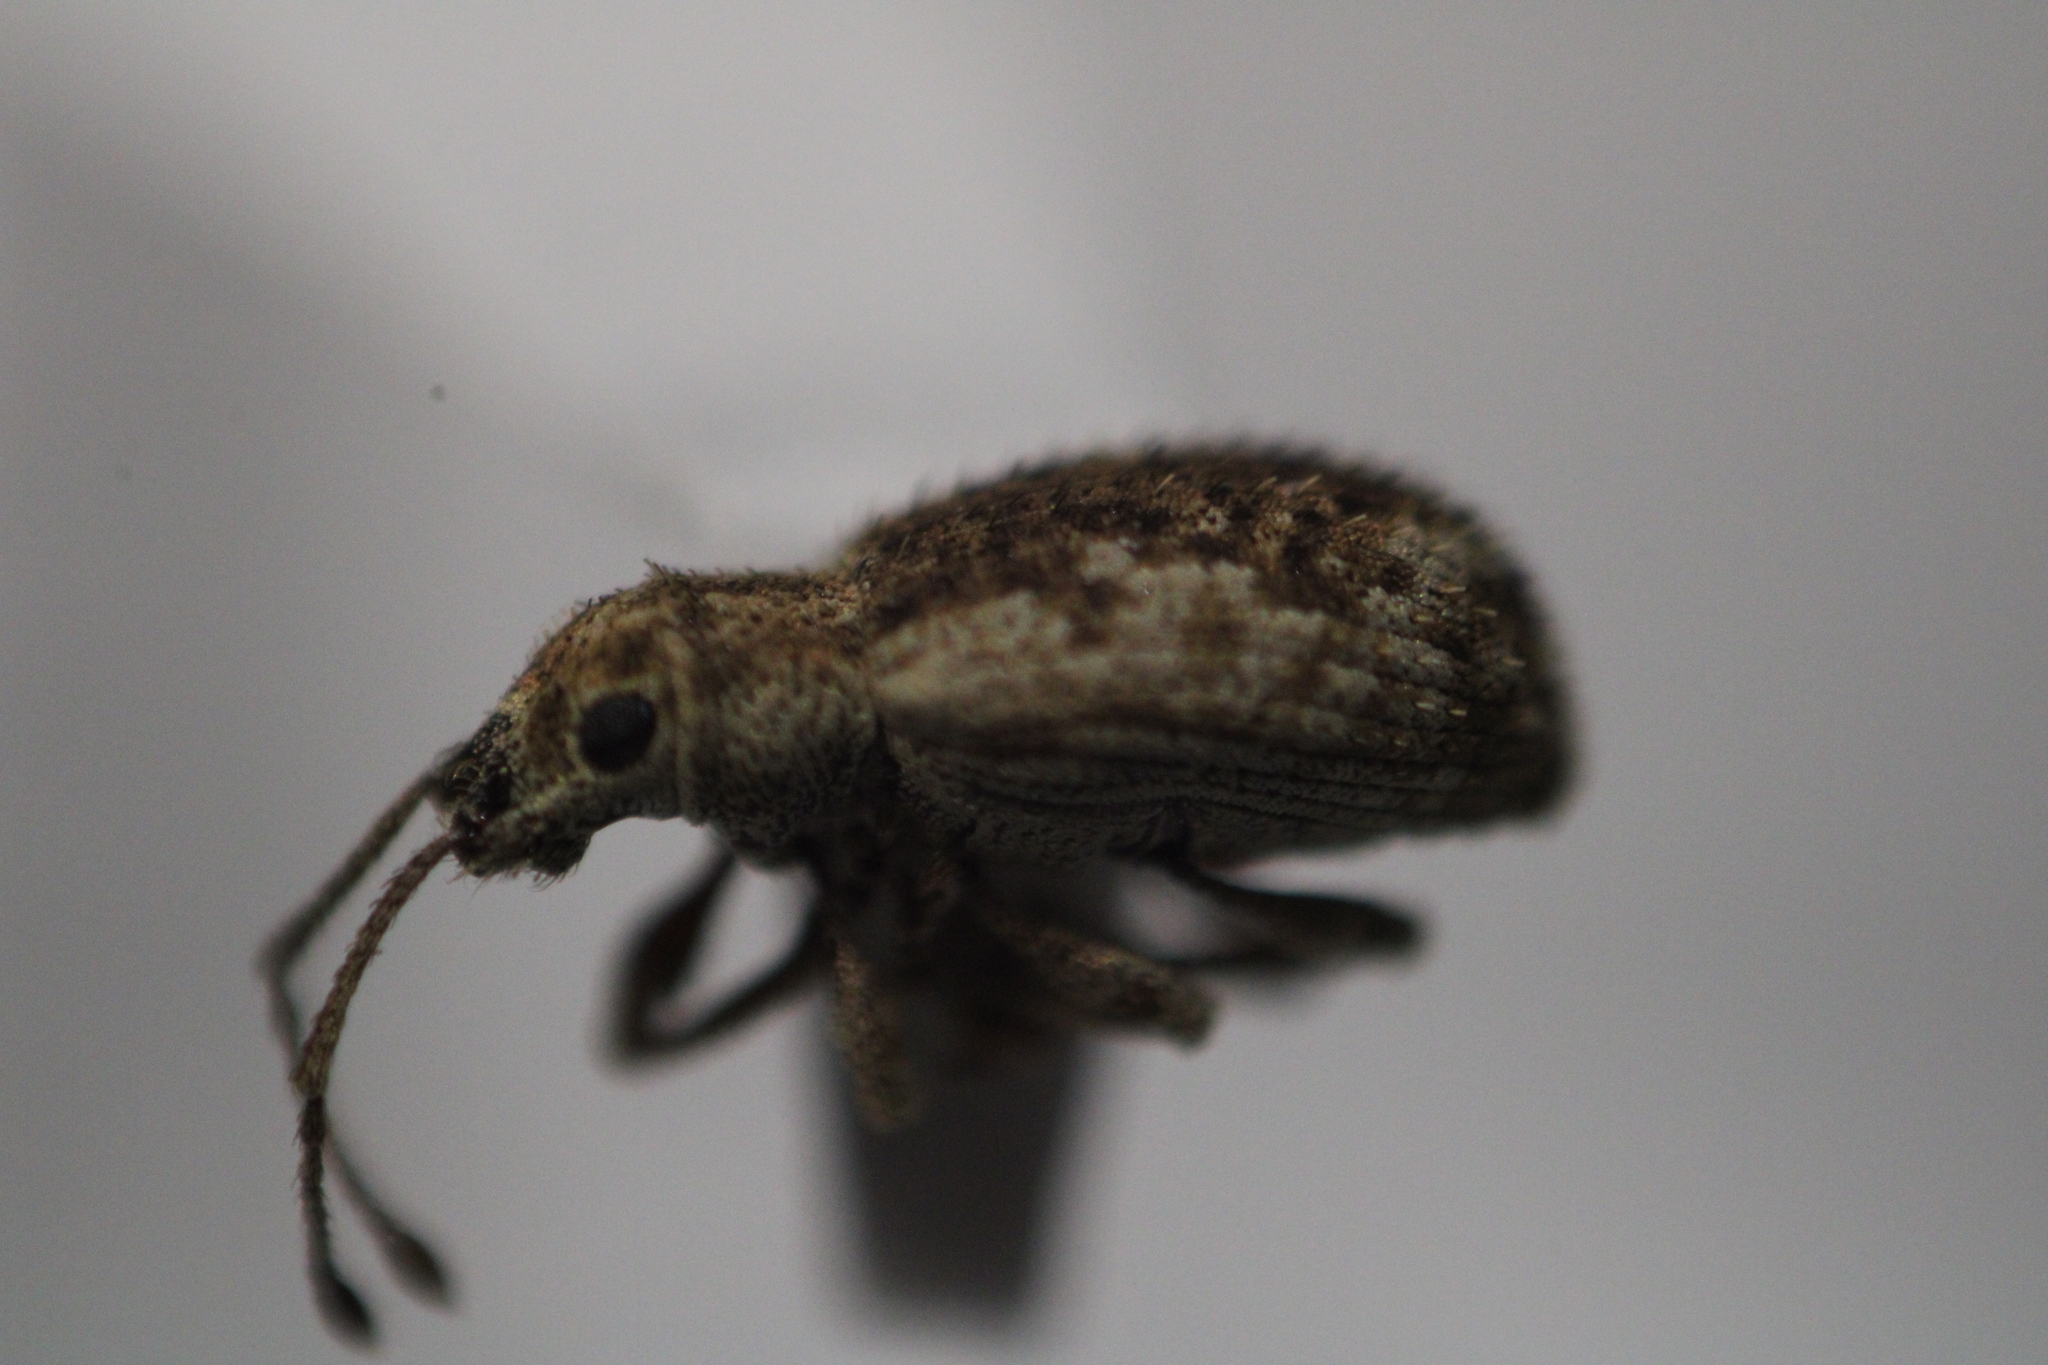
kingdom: Animalia
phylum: Arthropoda
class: Insecta
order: Coleoptera
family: Curculionidae
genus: Pseudoedophrys
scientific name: Pseudoedophrys hilleri
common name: Weevil
